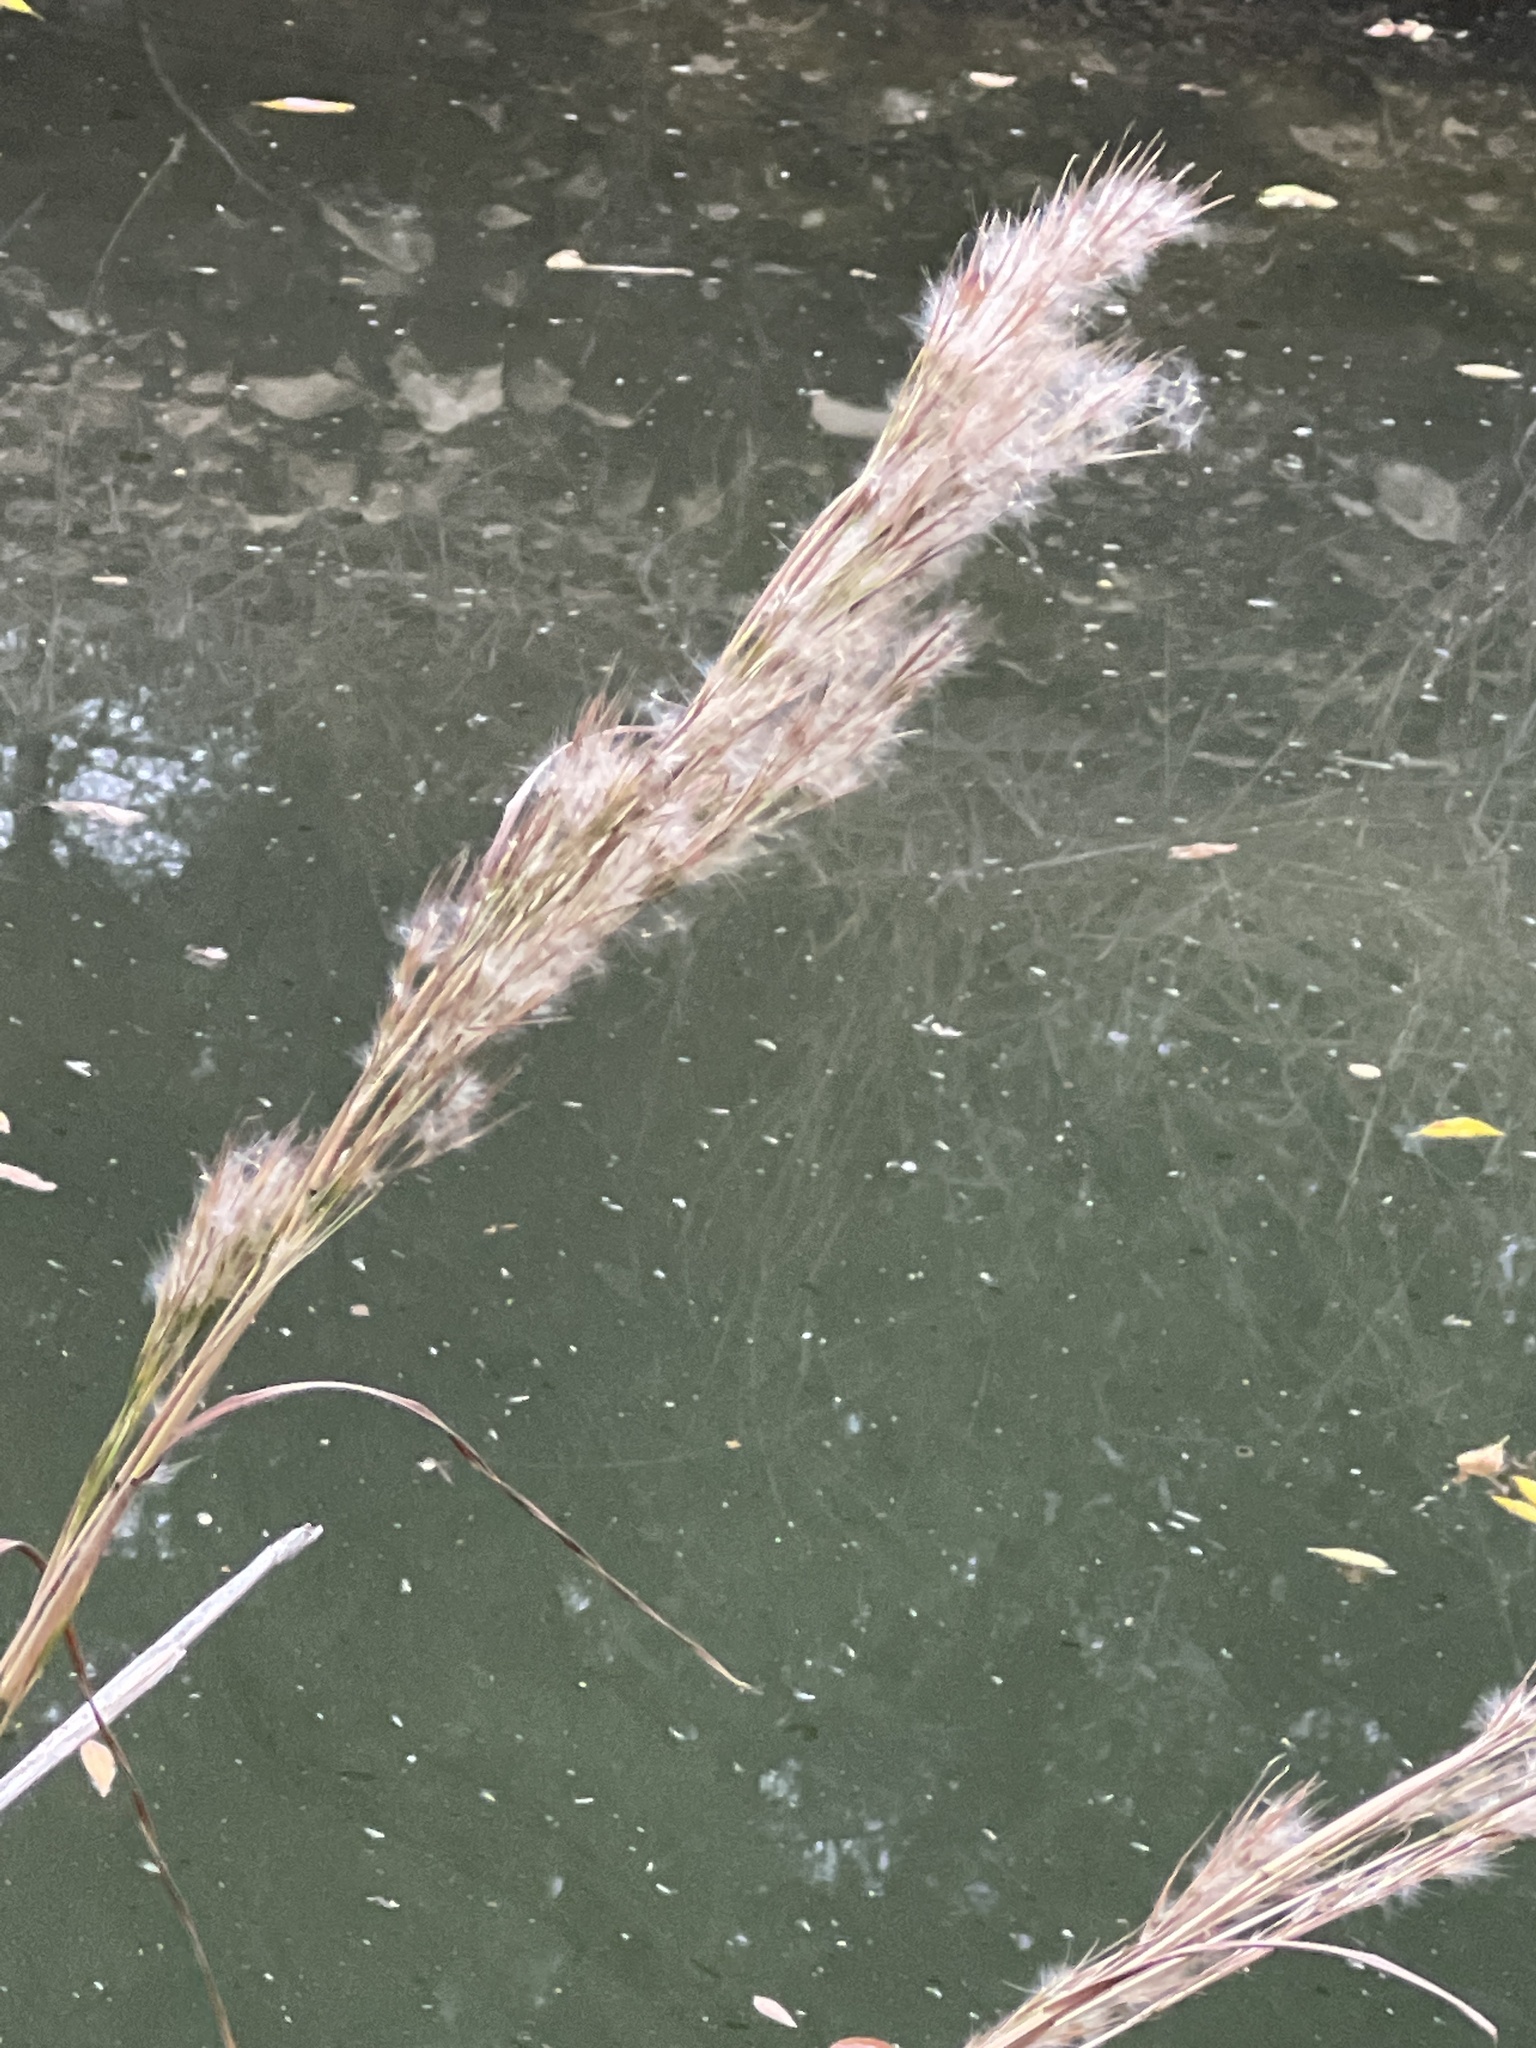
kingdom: Plantae
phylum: Tracheophyta
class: Liliopsida
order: Poales
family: Poaceae
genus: Andropogon
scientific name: Andropogon tenuispatheus
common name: Bushy bluestem
